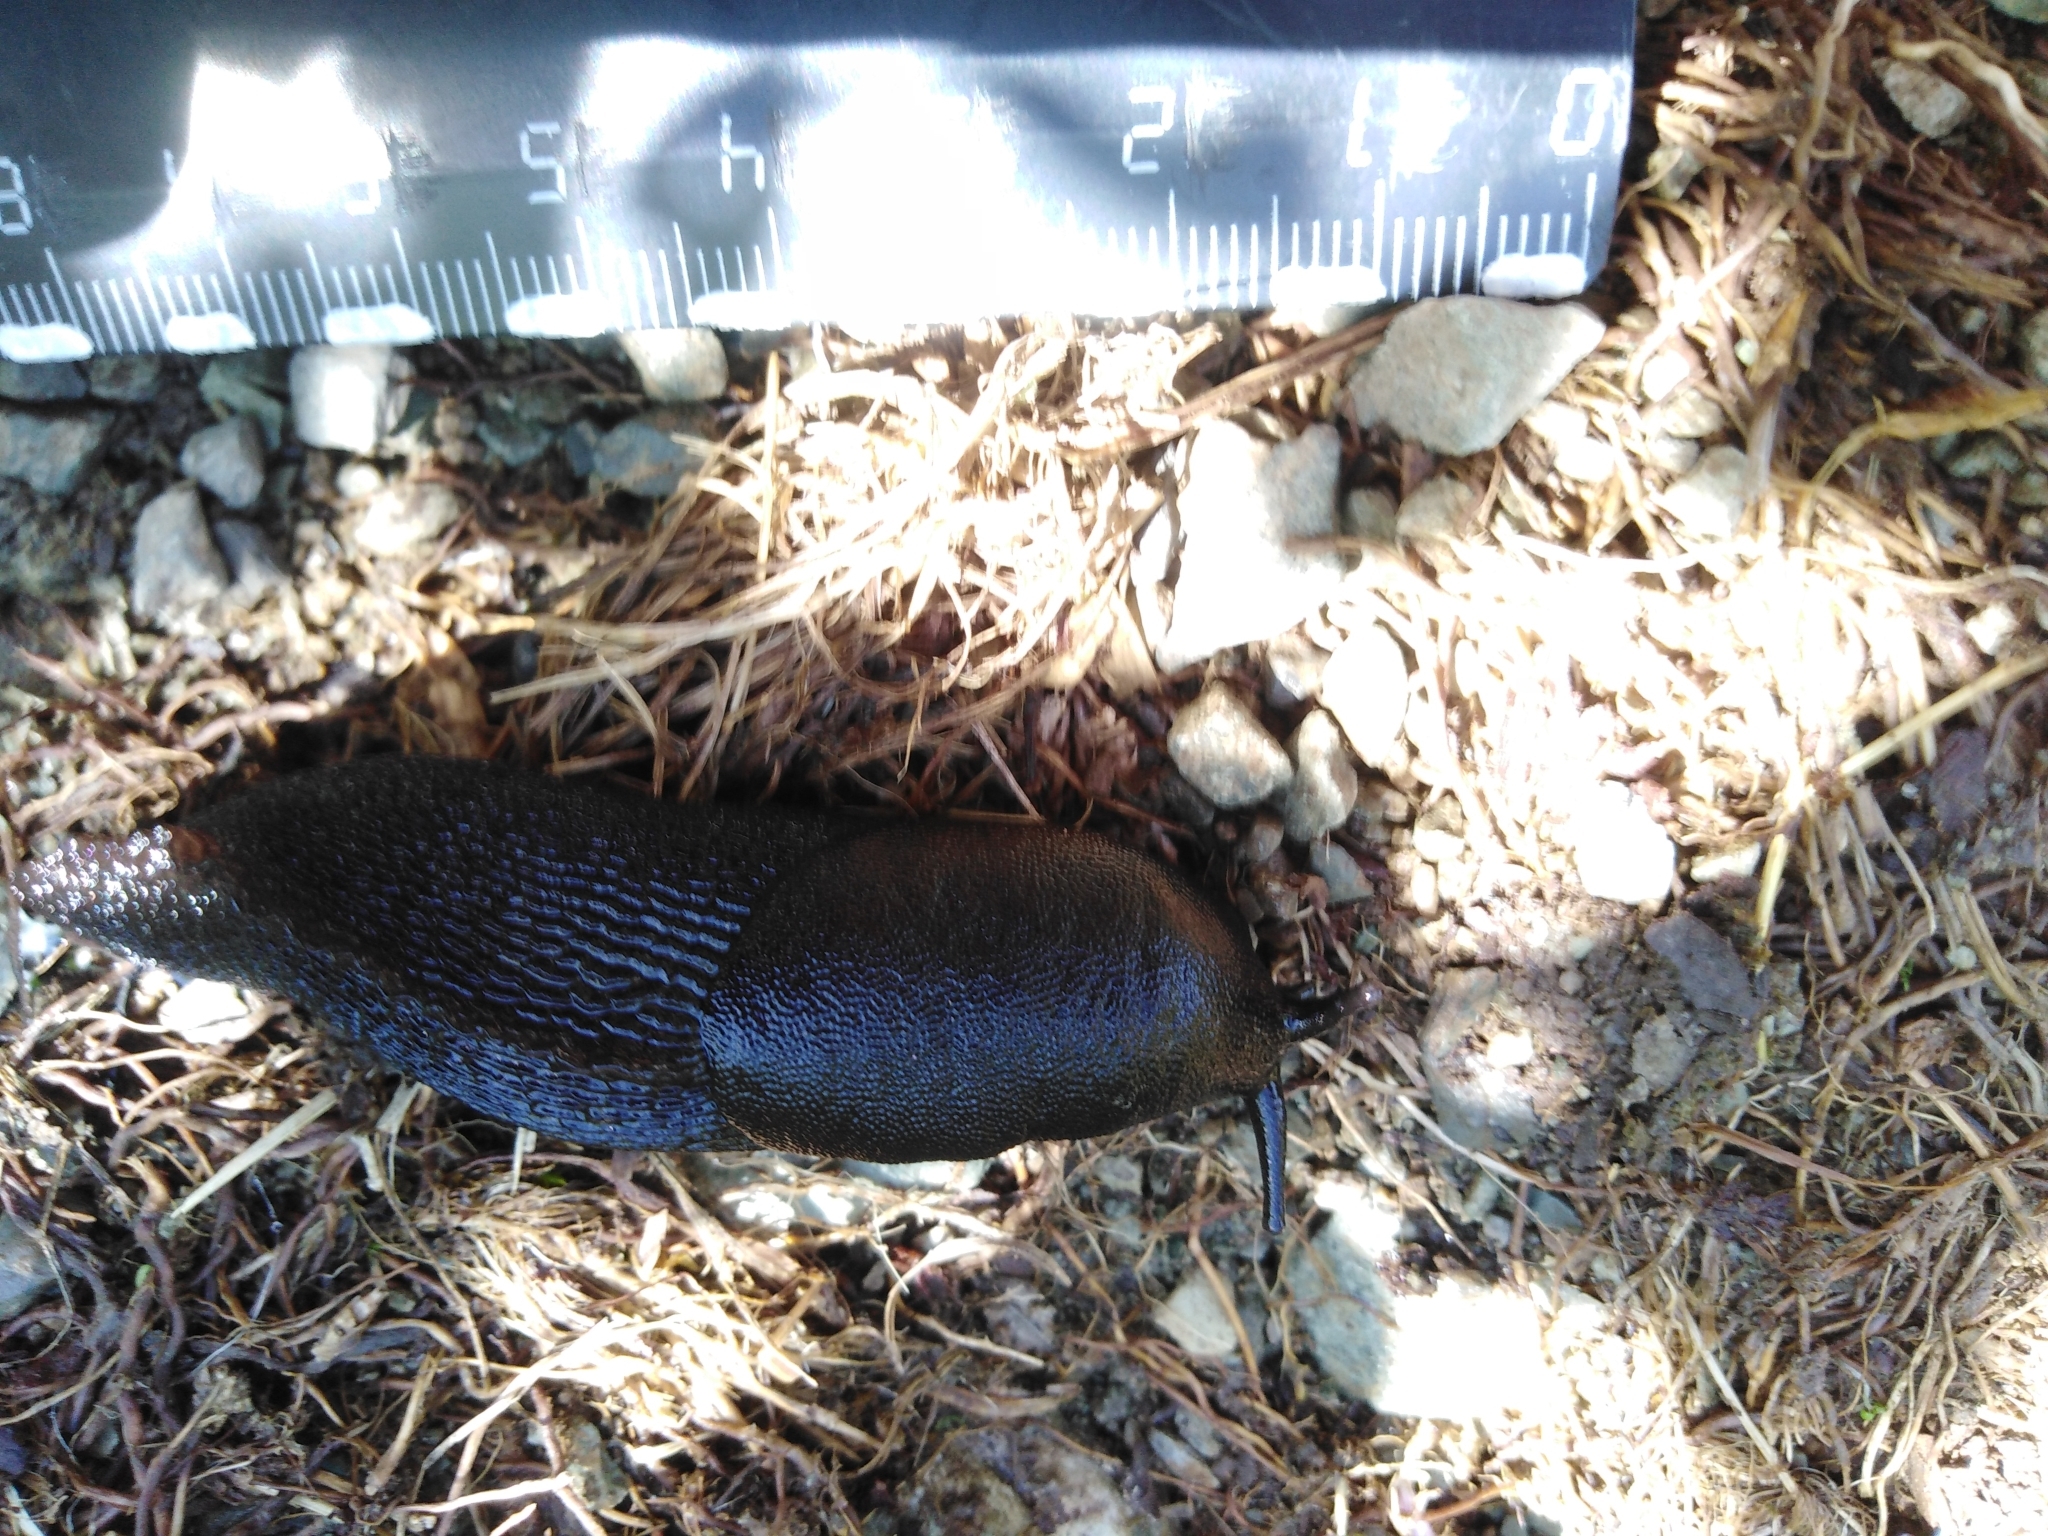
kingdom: Animalia
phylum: Mollusca
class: Gastropoda
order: Stylommatophora
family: Limacidae
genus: Eumilax
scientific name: Eumilax brandti
